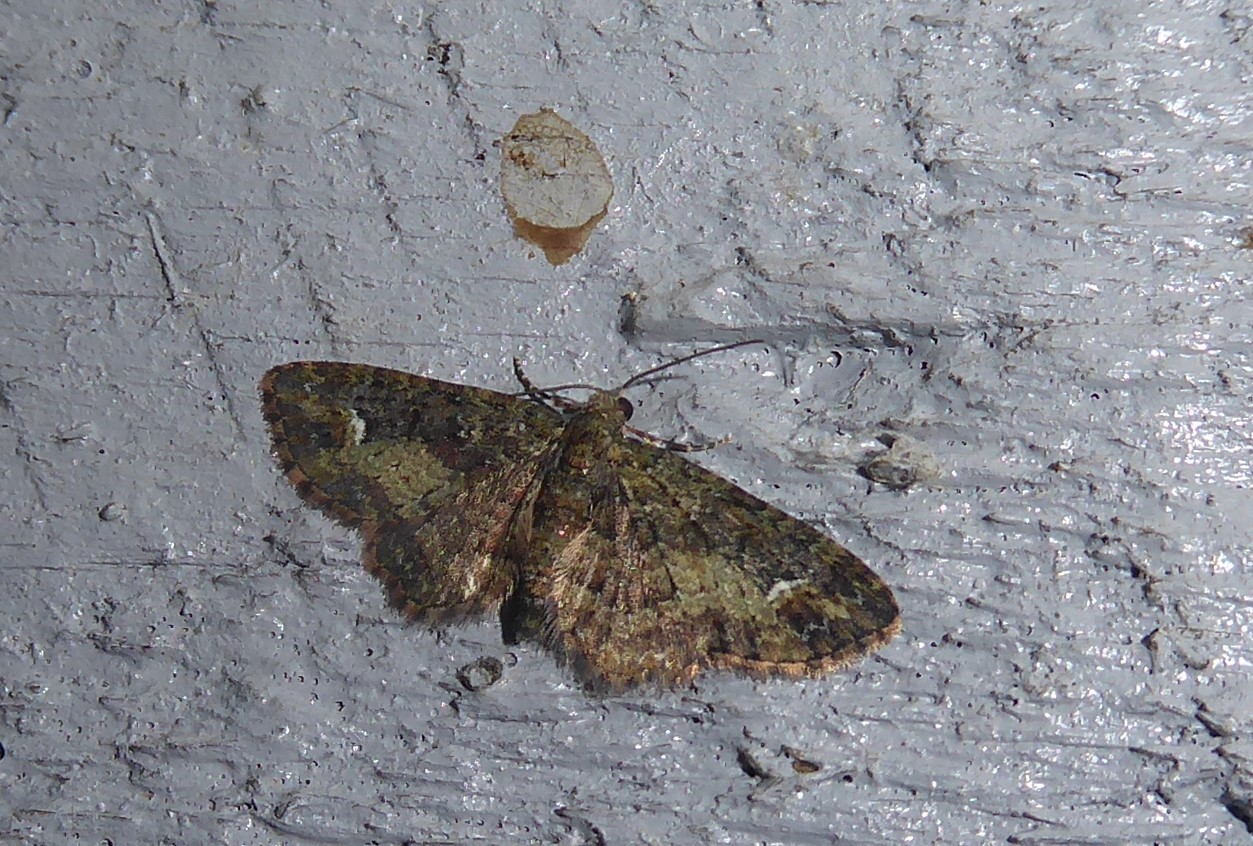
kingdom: Animalia
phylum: Arthropoda
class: Insecta
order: Lepidoptera
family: Geometridae
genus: Pasiphilodes
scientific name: Pasiphilodes testulata
